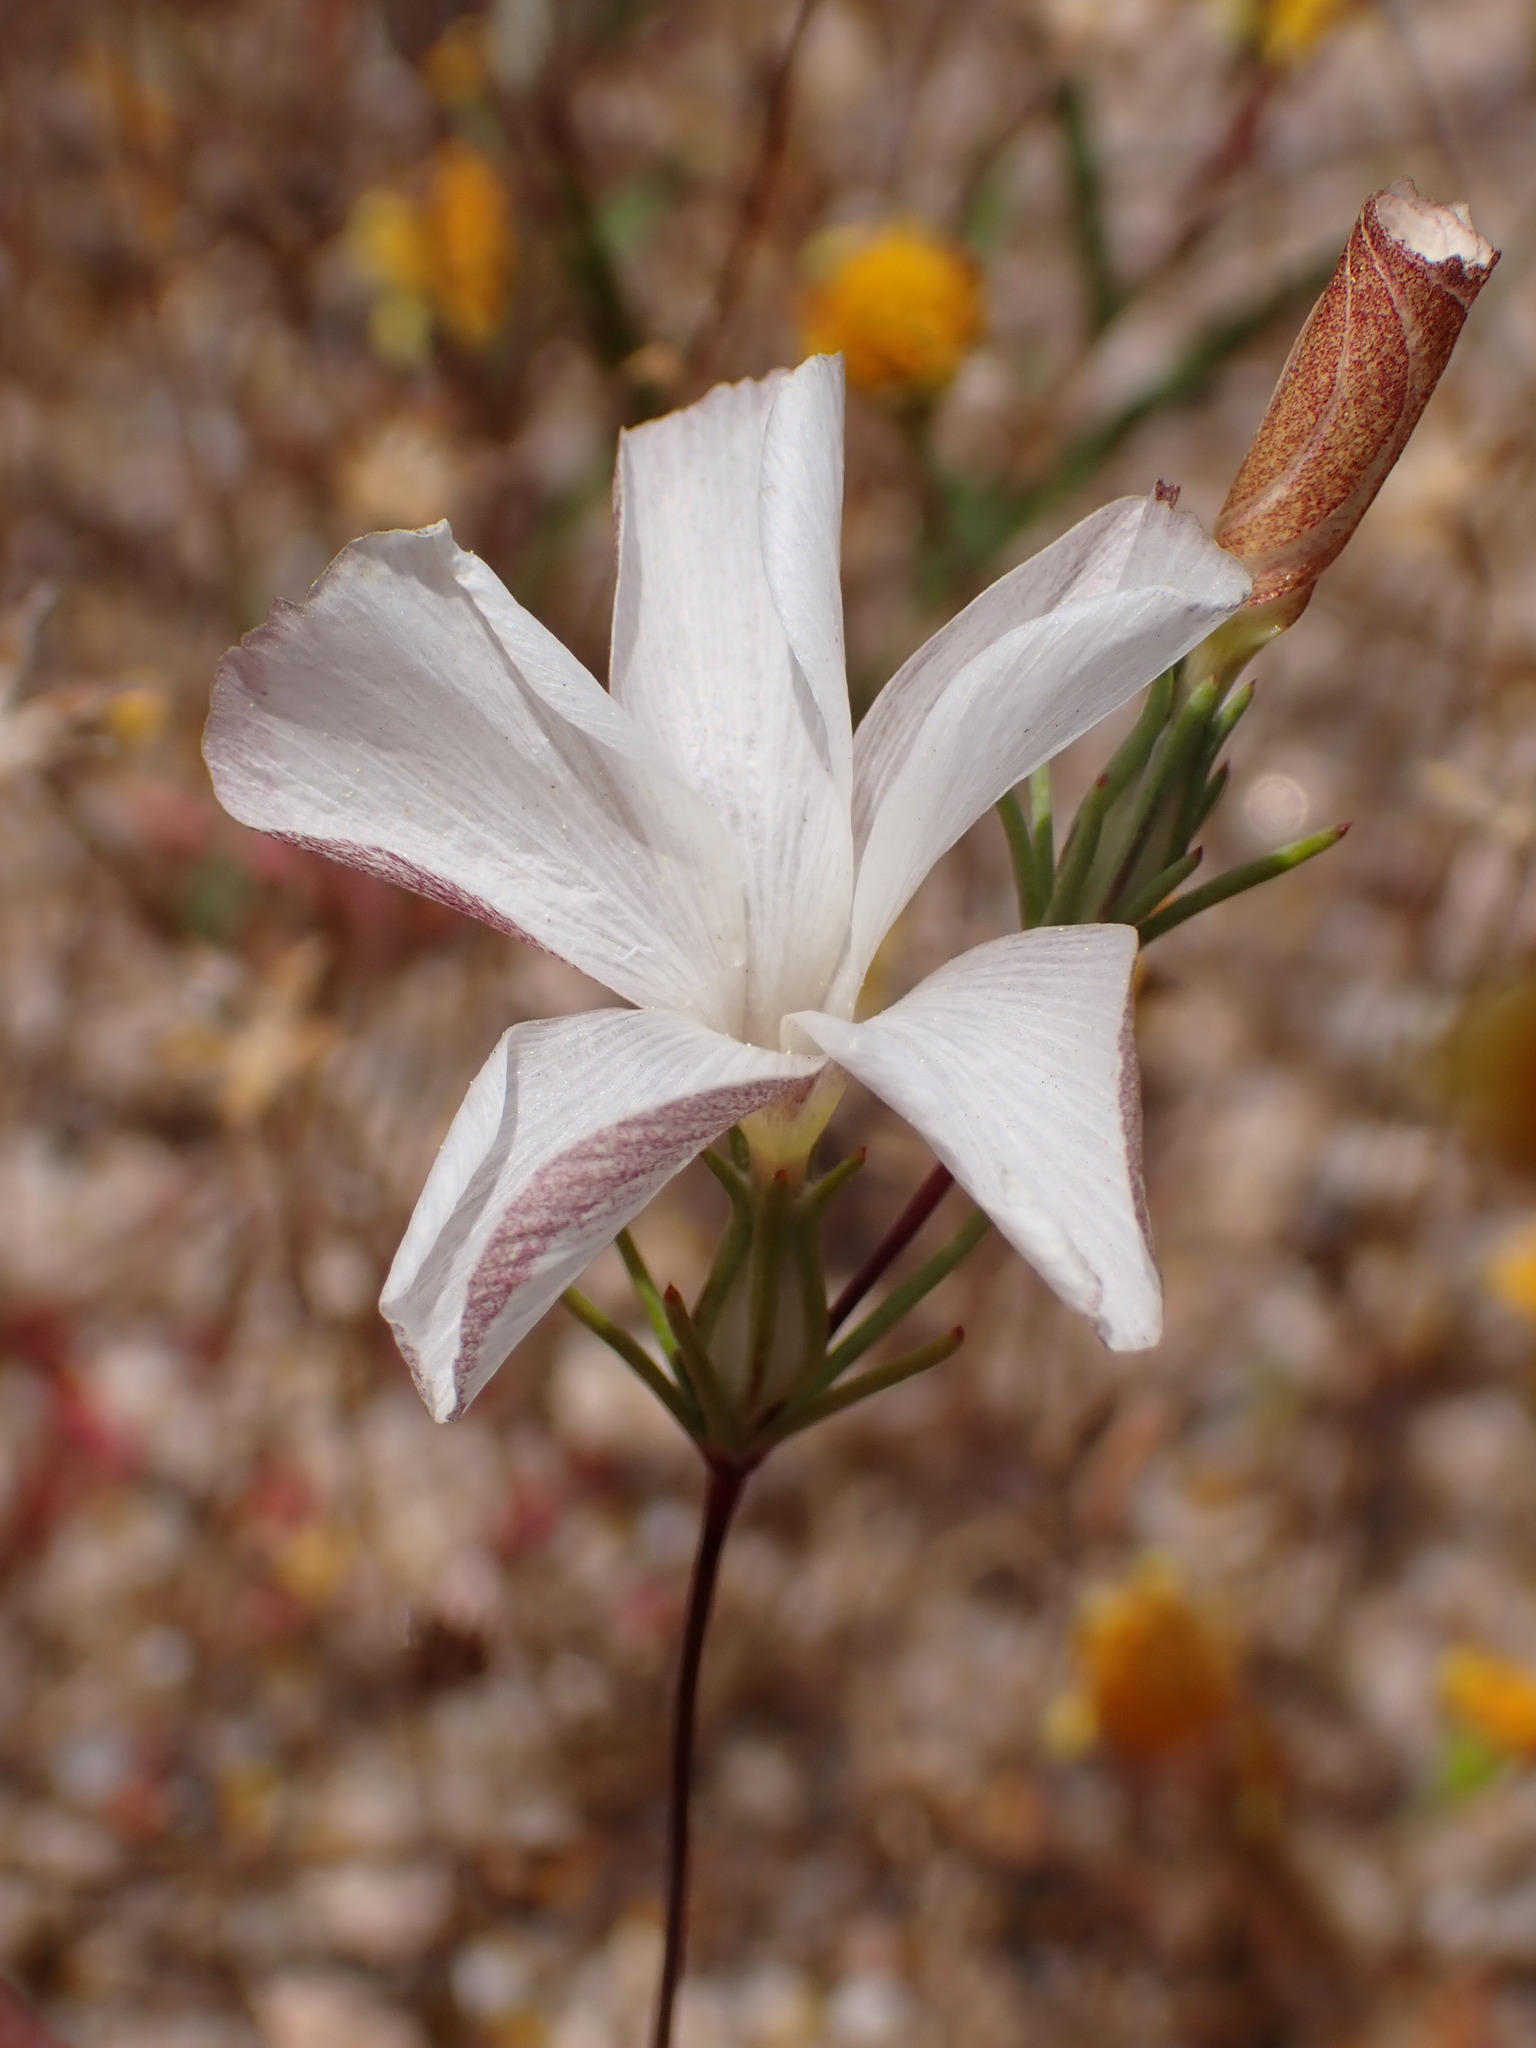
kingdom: Plantae
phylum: Tracheophyta
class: Magnoliopsida
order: Ericales
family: Polemoniaceae
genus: Linanthus
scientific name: Linanthus dichotomus
